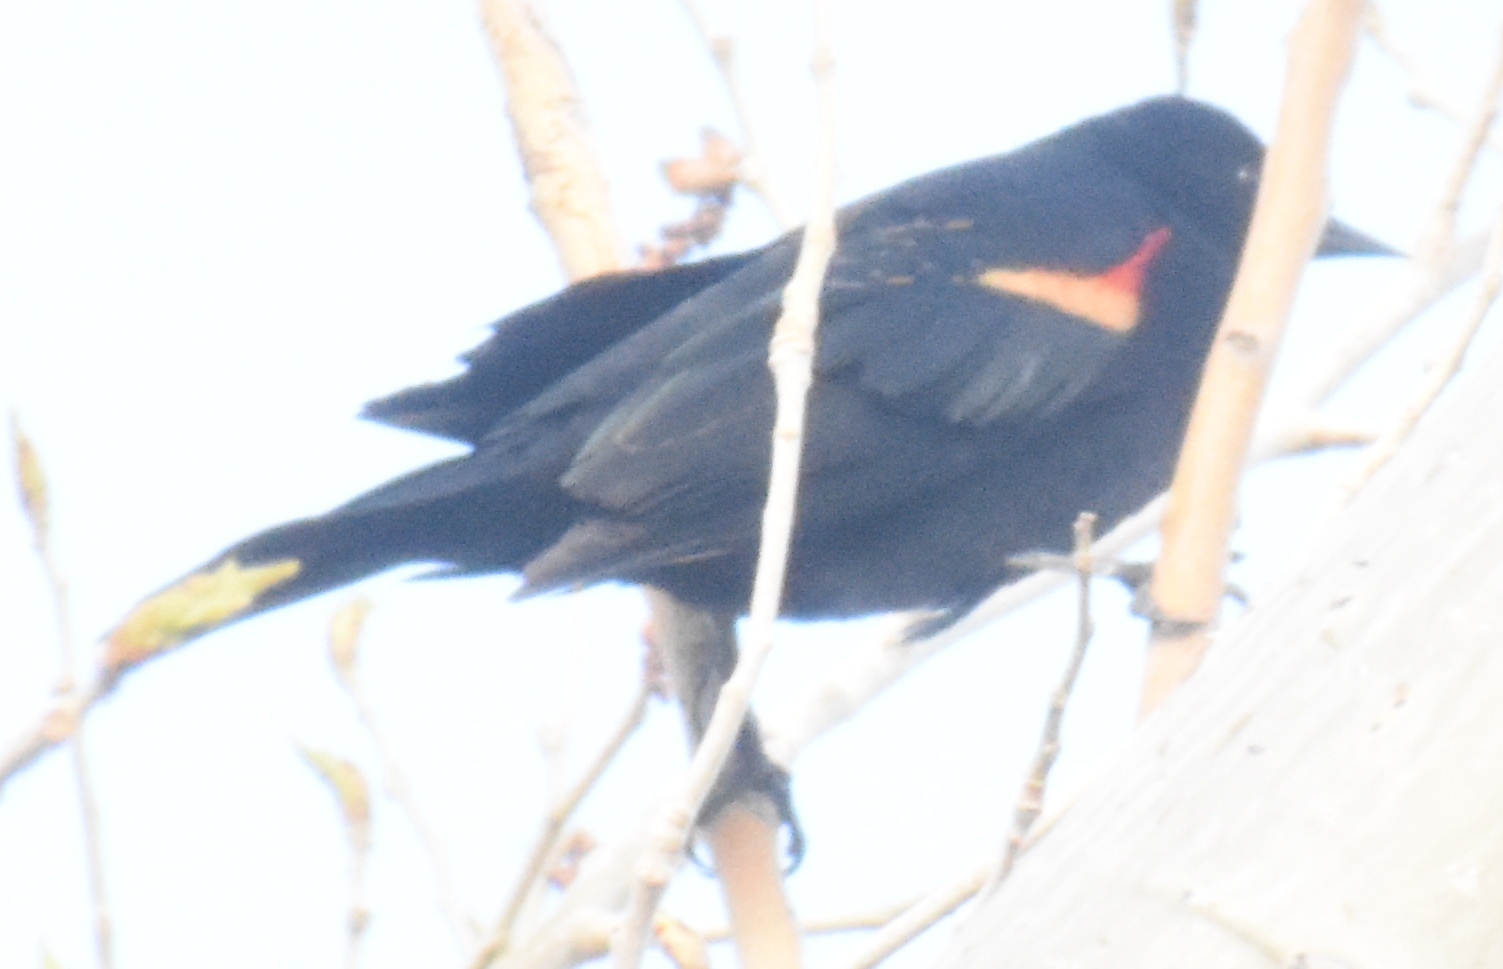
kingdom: Animalia
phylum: Chordata
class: Aves
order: Passeriformes
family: Icteridae
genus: Agelaius
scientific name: Agelaius phoeniceus
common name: Red-winged blackbird
